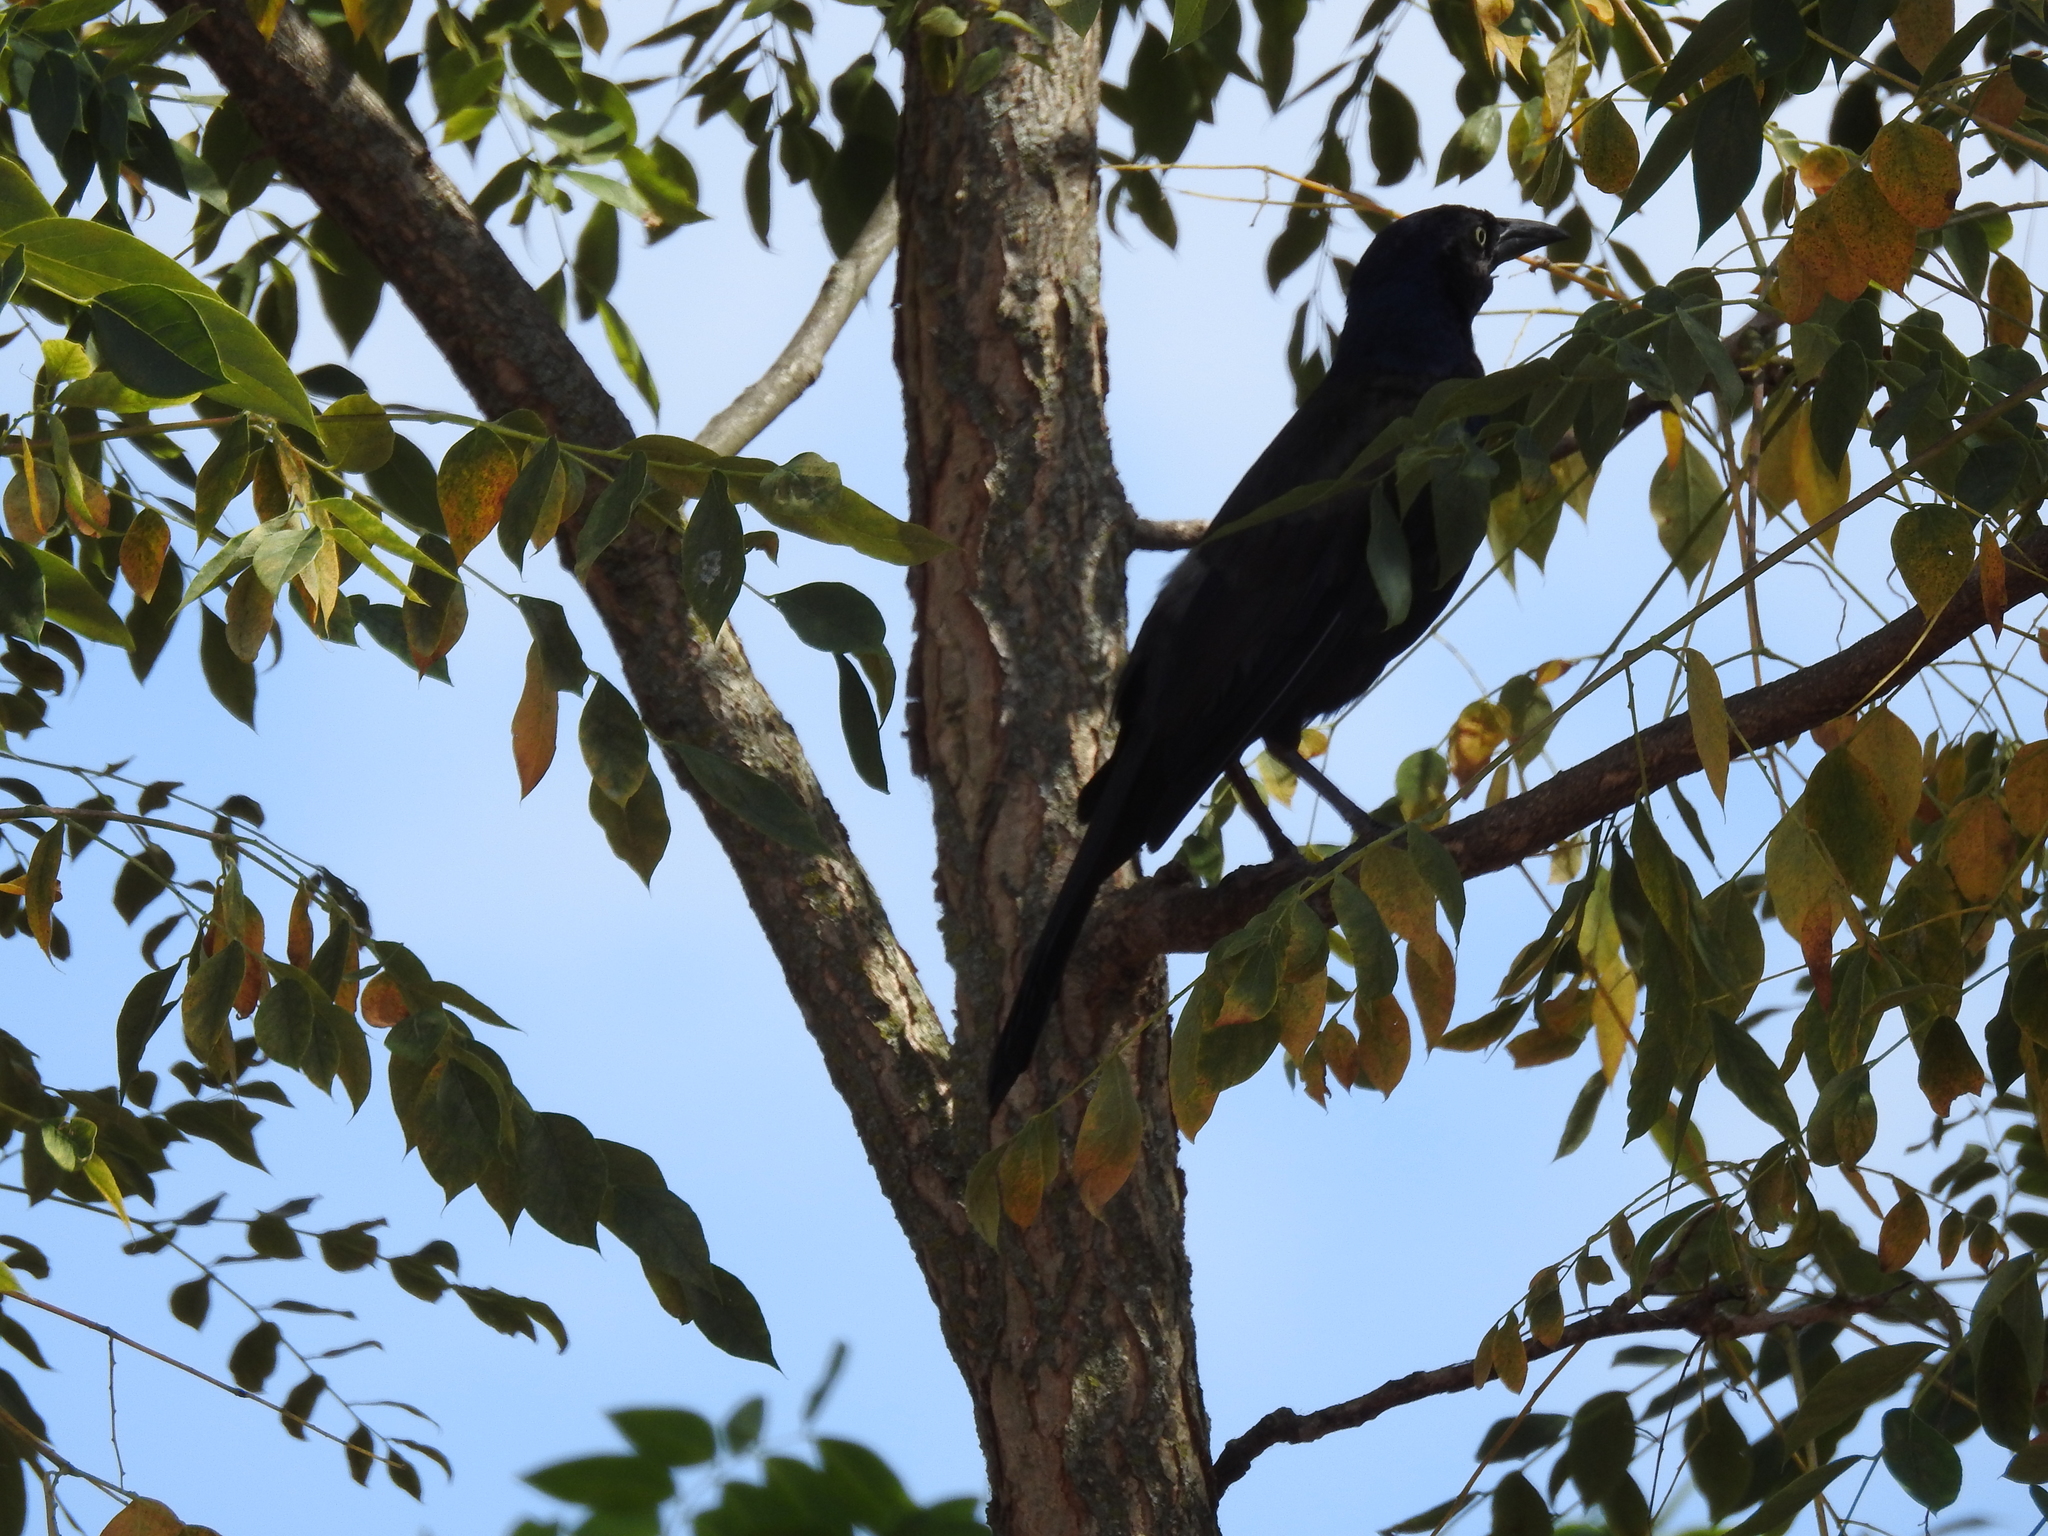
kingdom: Animalia
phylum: Chordata
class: Aves
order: Passeriformes
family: Icteridae
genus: Quiscalus
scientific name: Quiscalus quiscula
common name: Common grackle
